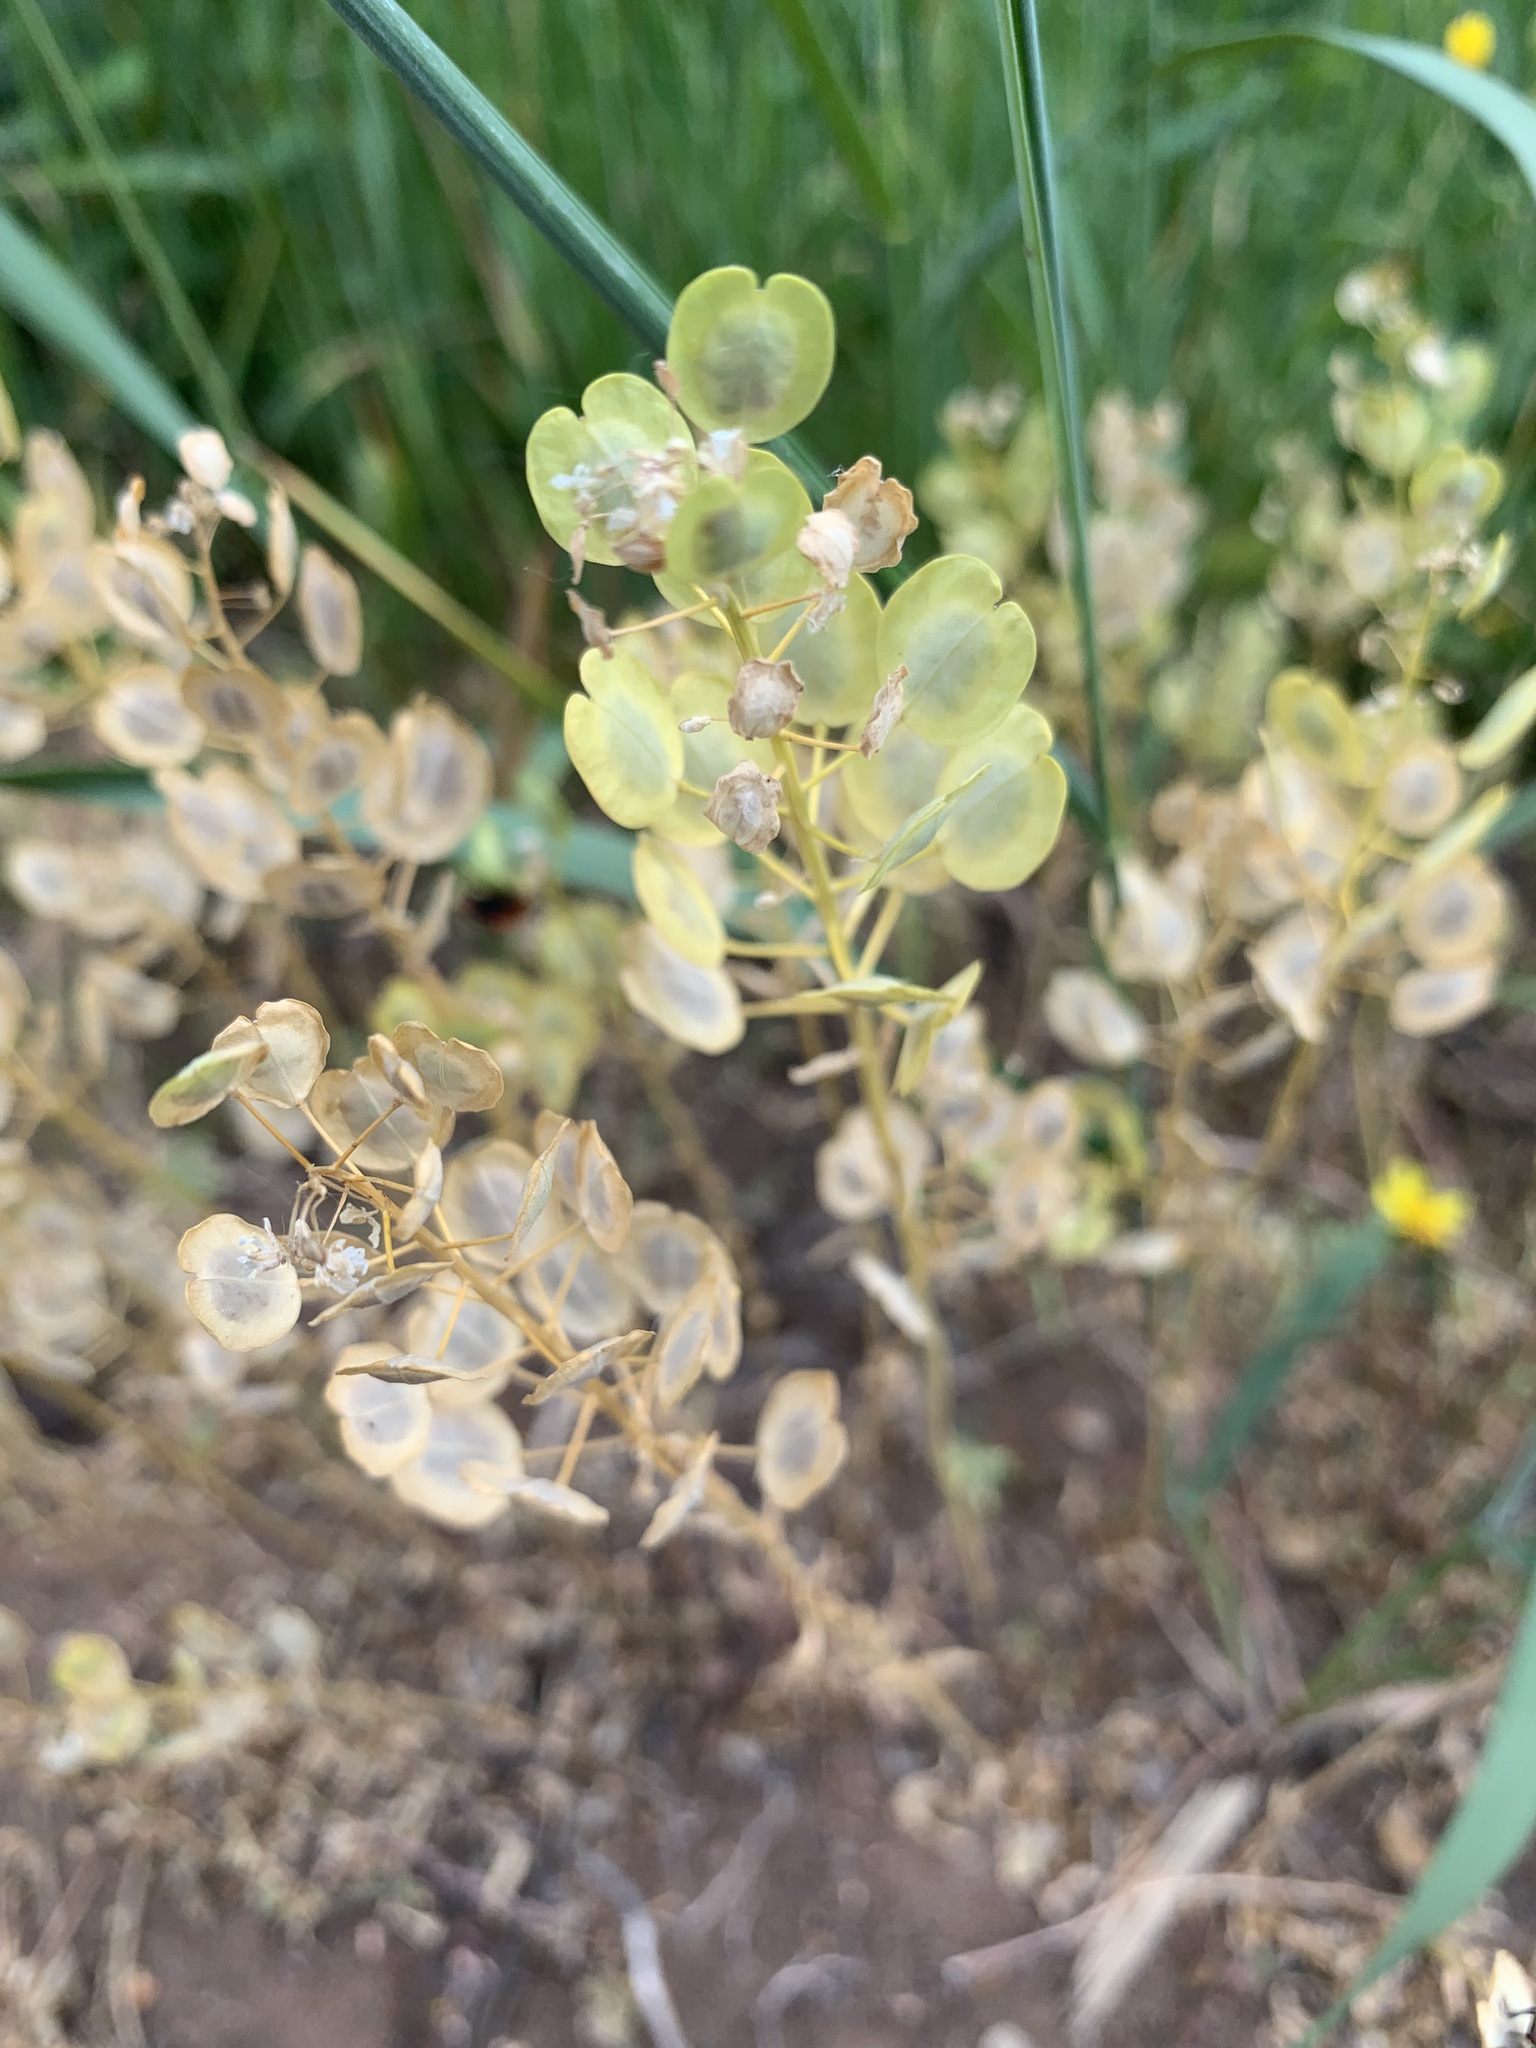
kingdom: Plantae
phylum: Tracheophyta
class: Magnoliopsida
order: Brassicales
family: Brassicaceae
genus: Thlaspi
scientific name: Thlaspi arvense
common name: Field pennycress
